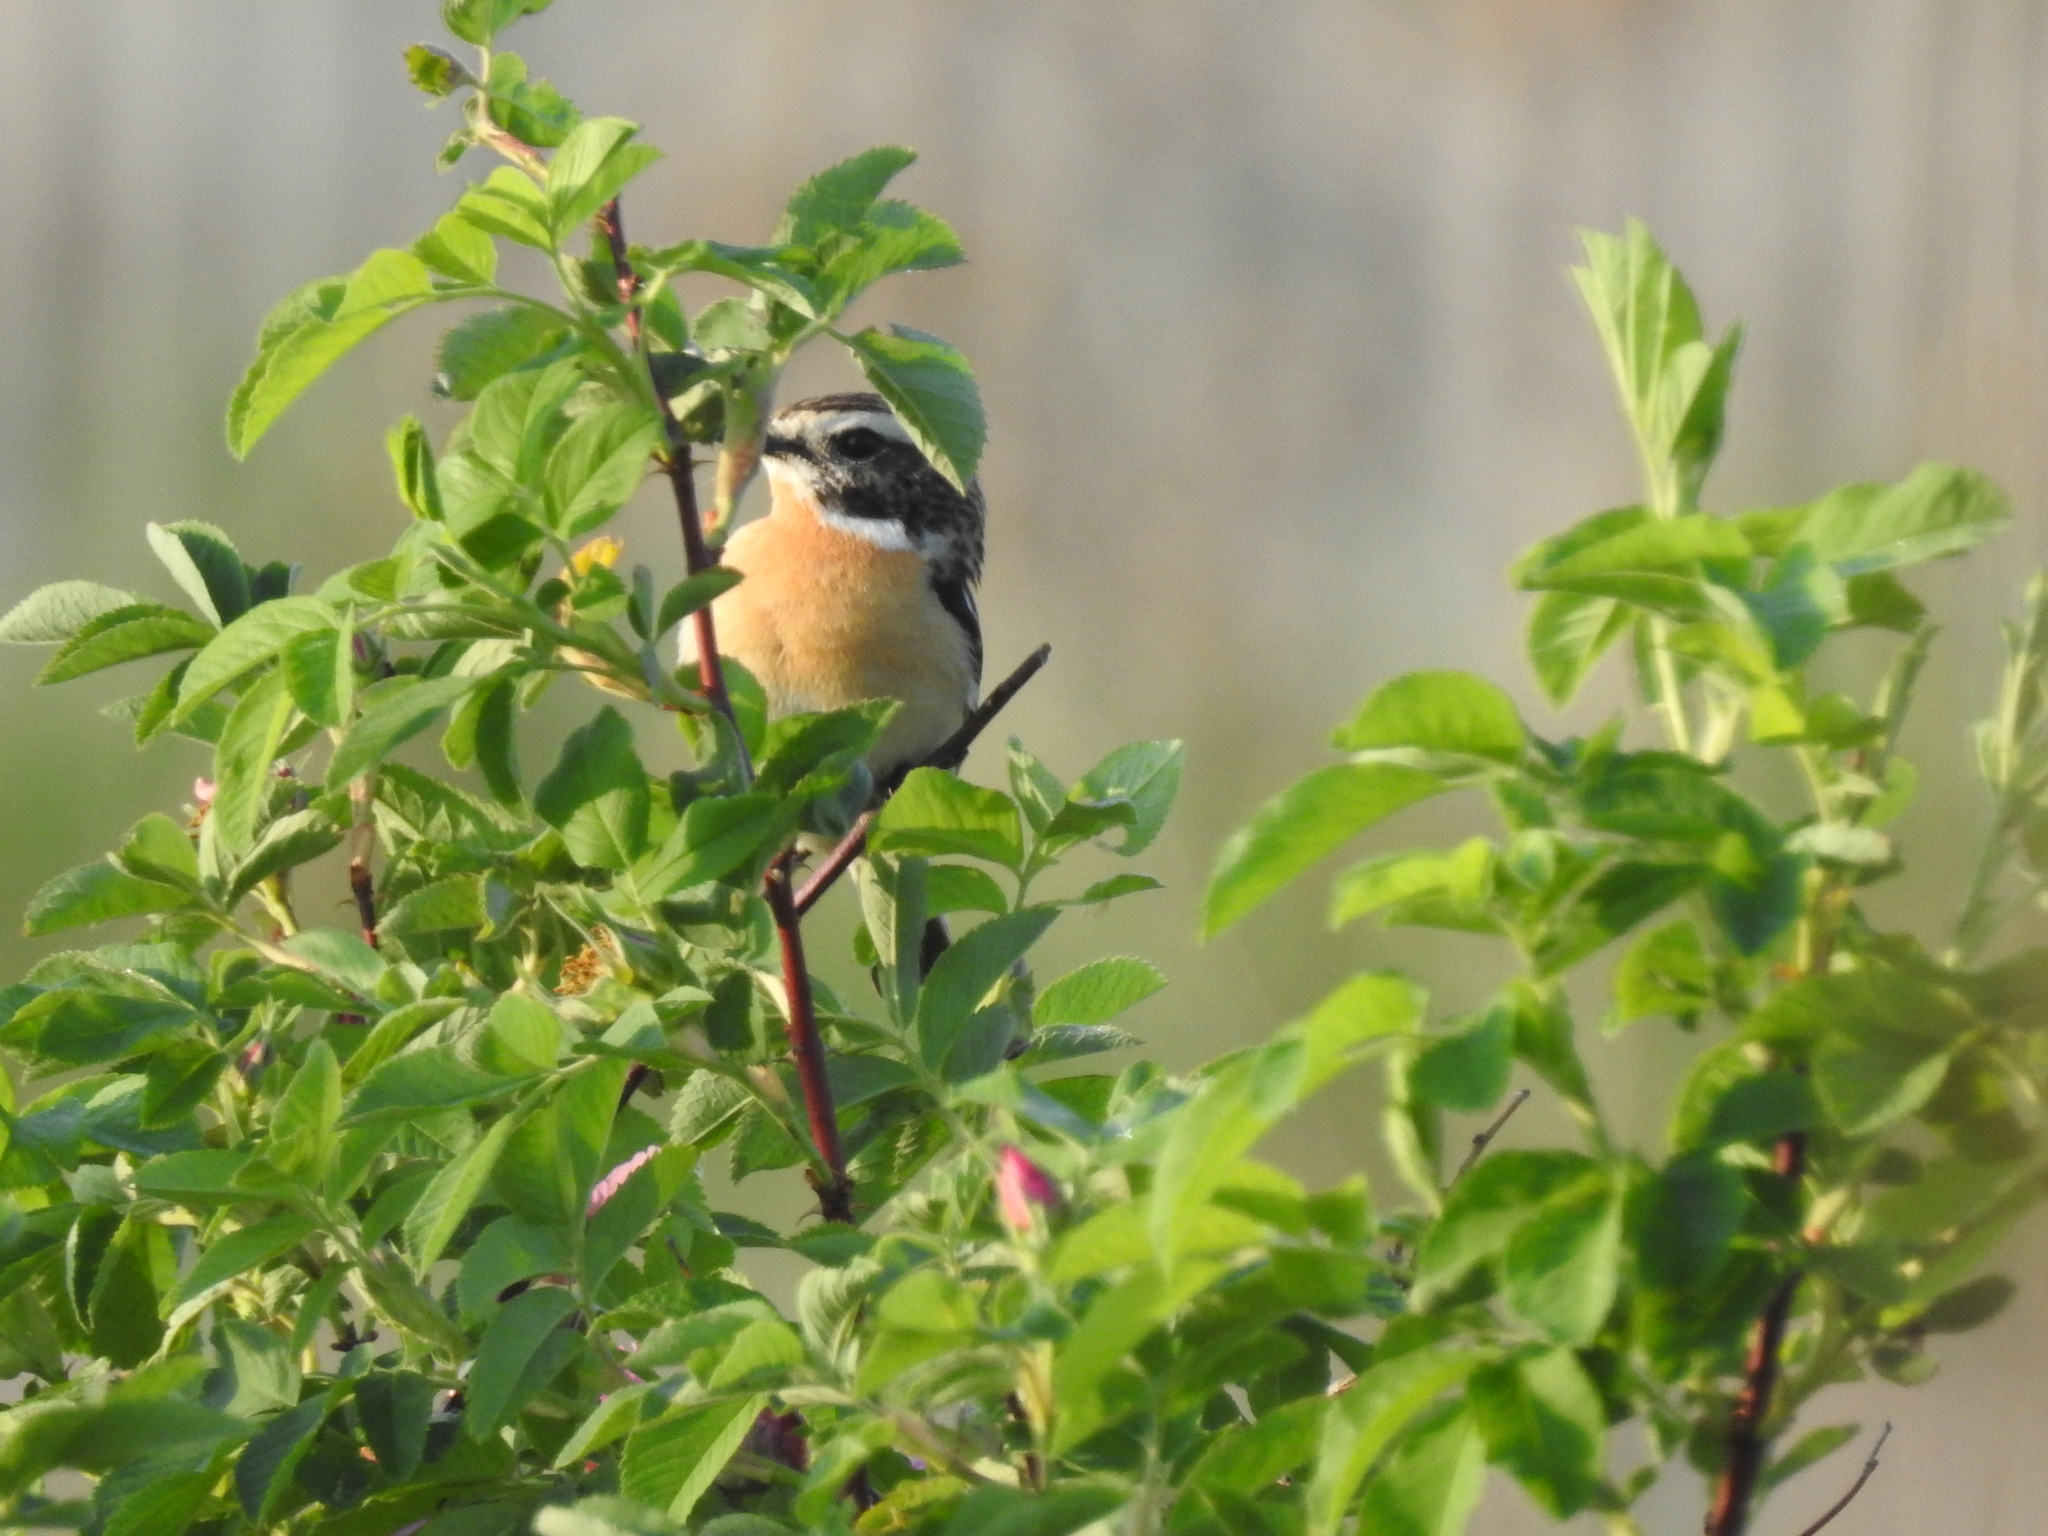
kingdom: Animalia
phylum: Chordata
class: Aves
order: Passeriformes
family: Muscicapidae
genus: Saxicola
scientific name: Saxicola rubetra
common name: Whinchat
